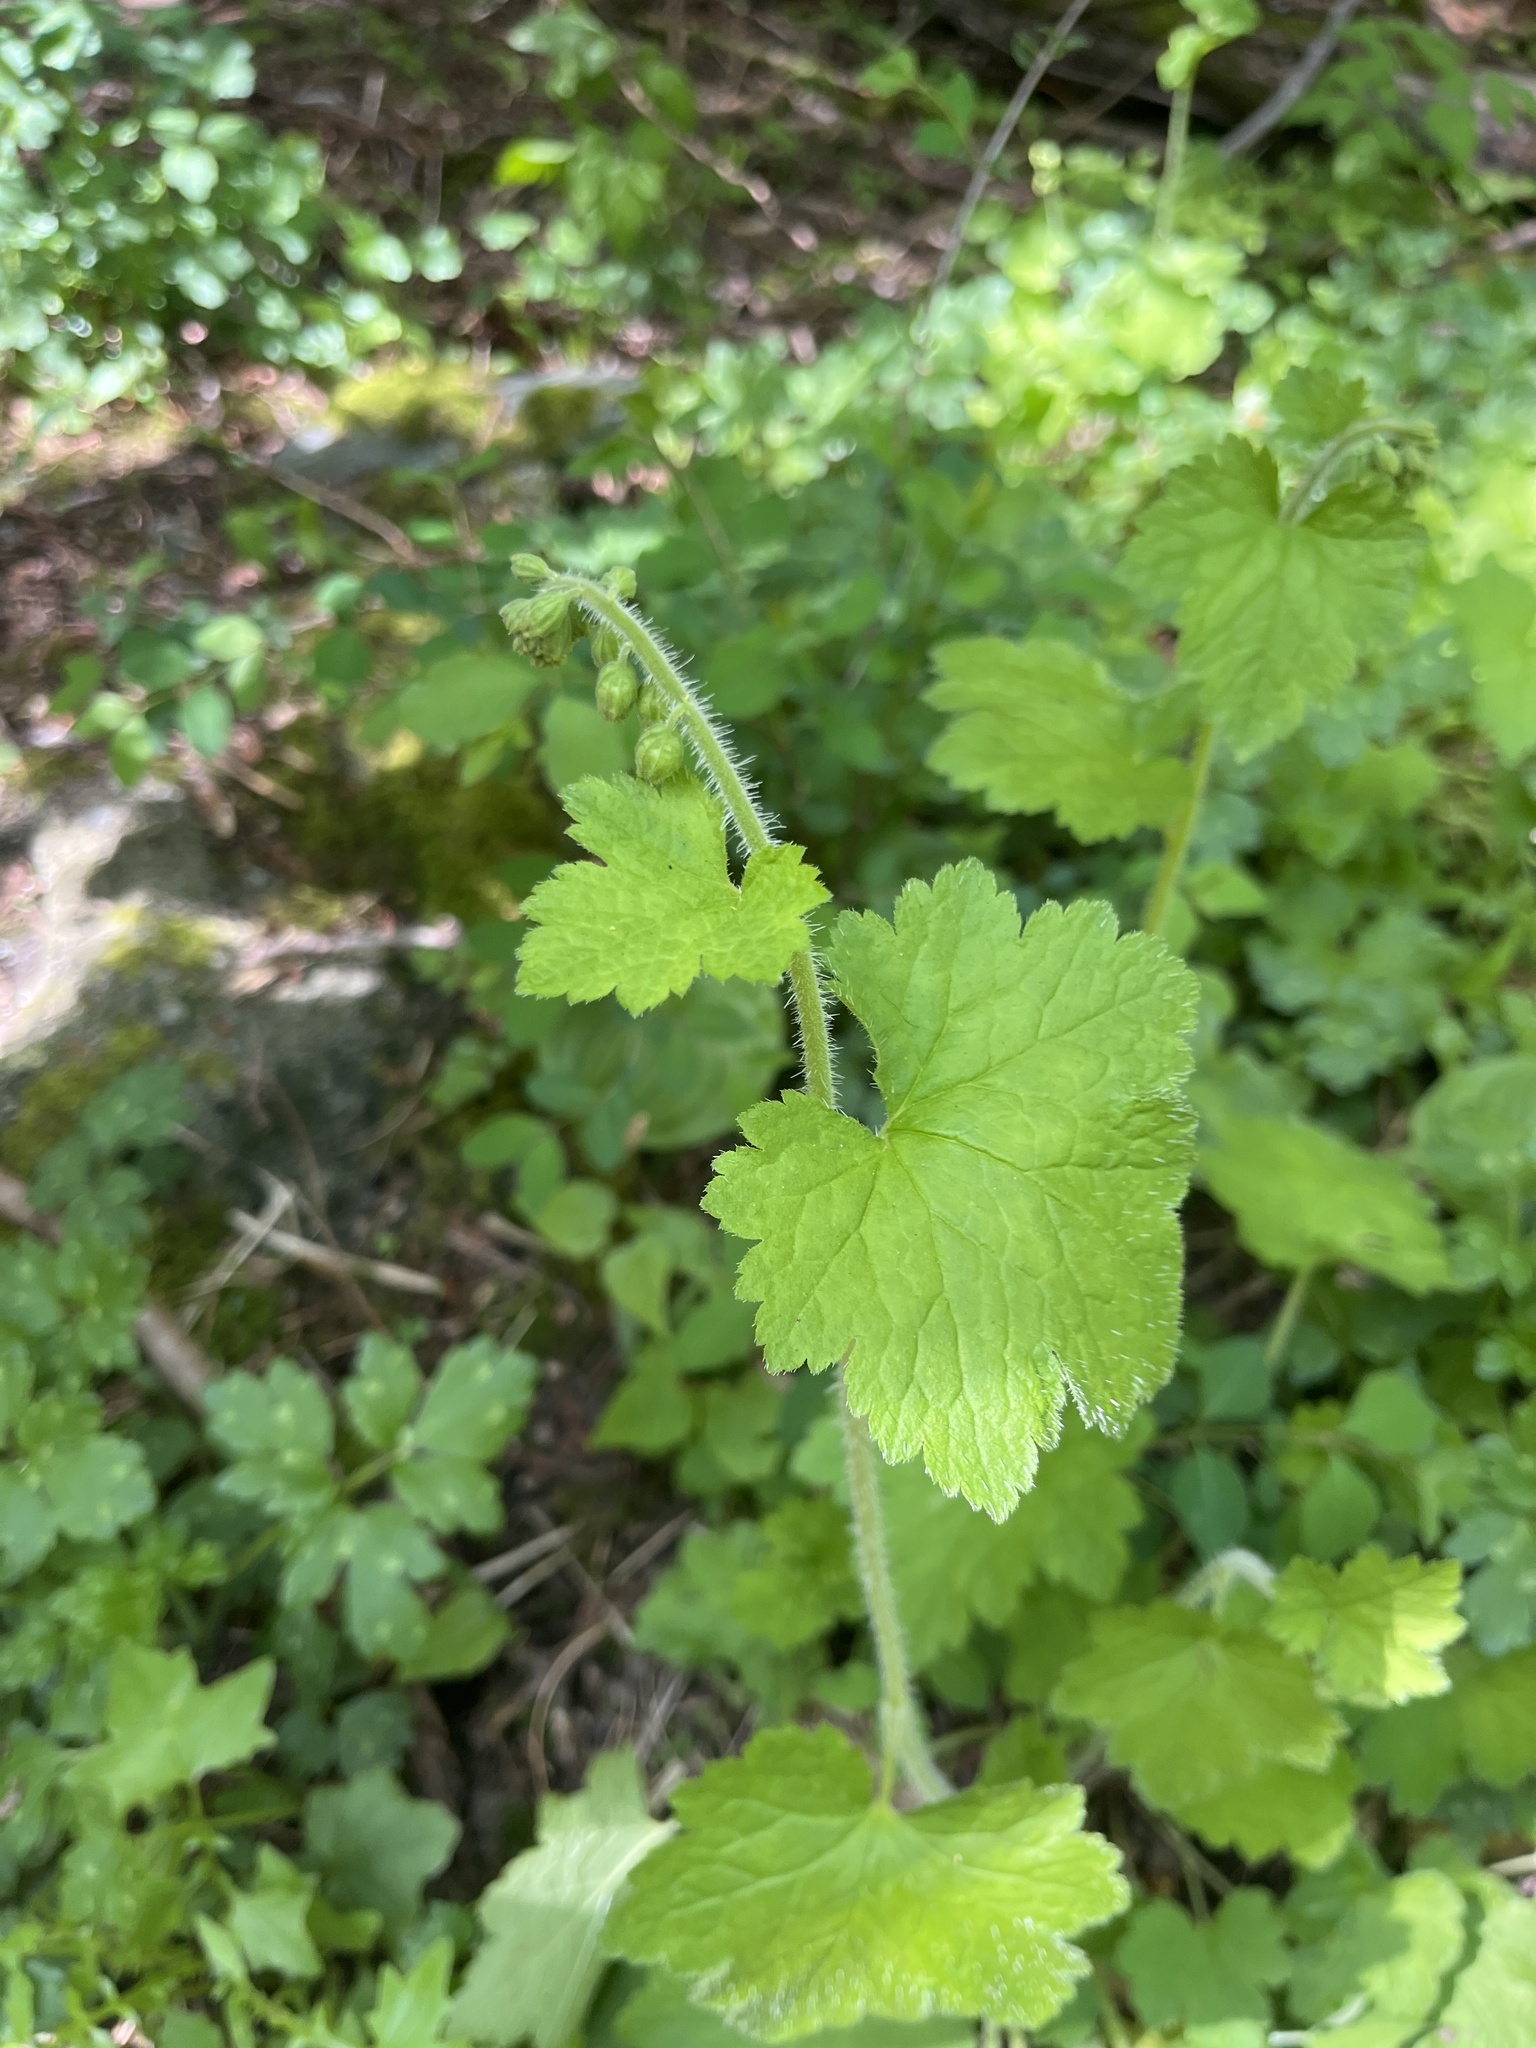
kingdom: Plantae
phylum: Tracheophyta
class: Magnoliopsida
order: Saxifragales
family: Saxifragaceae
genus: Tellima
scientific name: Tellima grandiflora
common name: Fringecups
